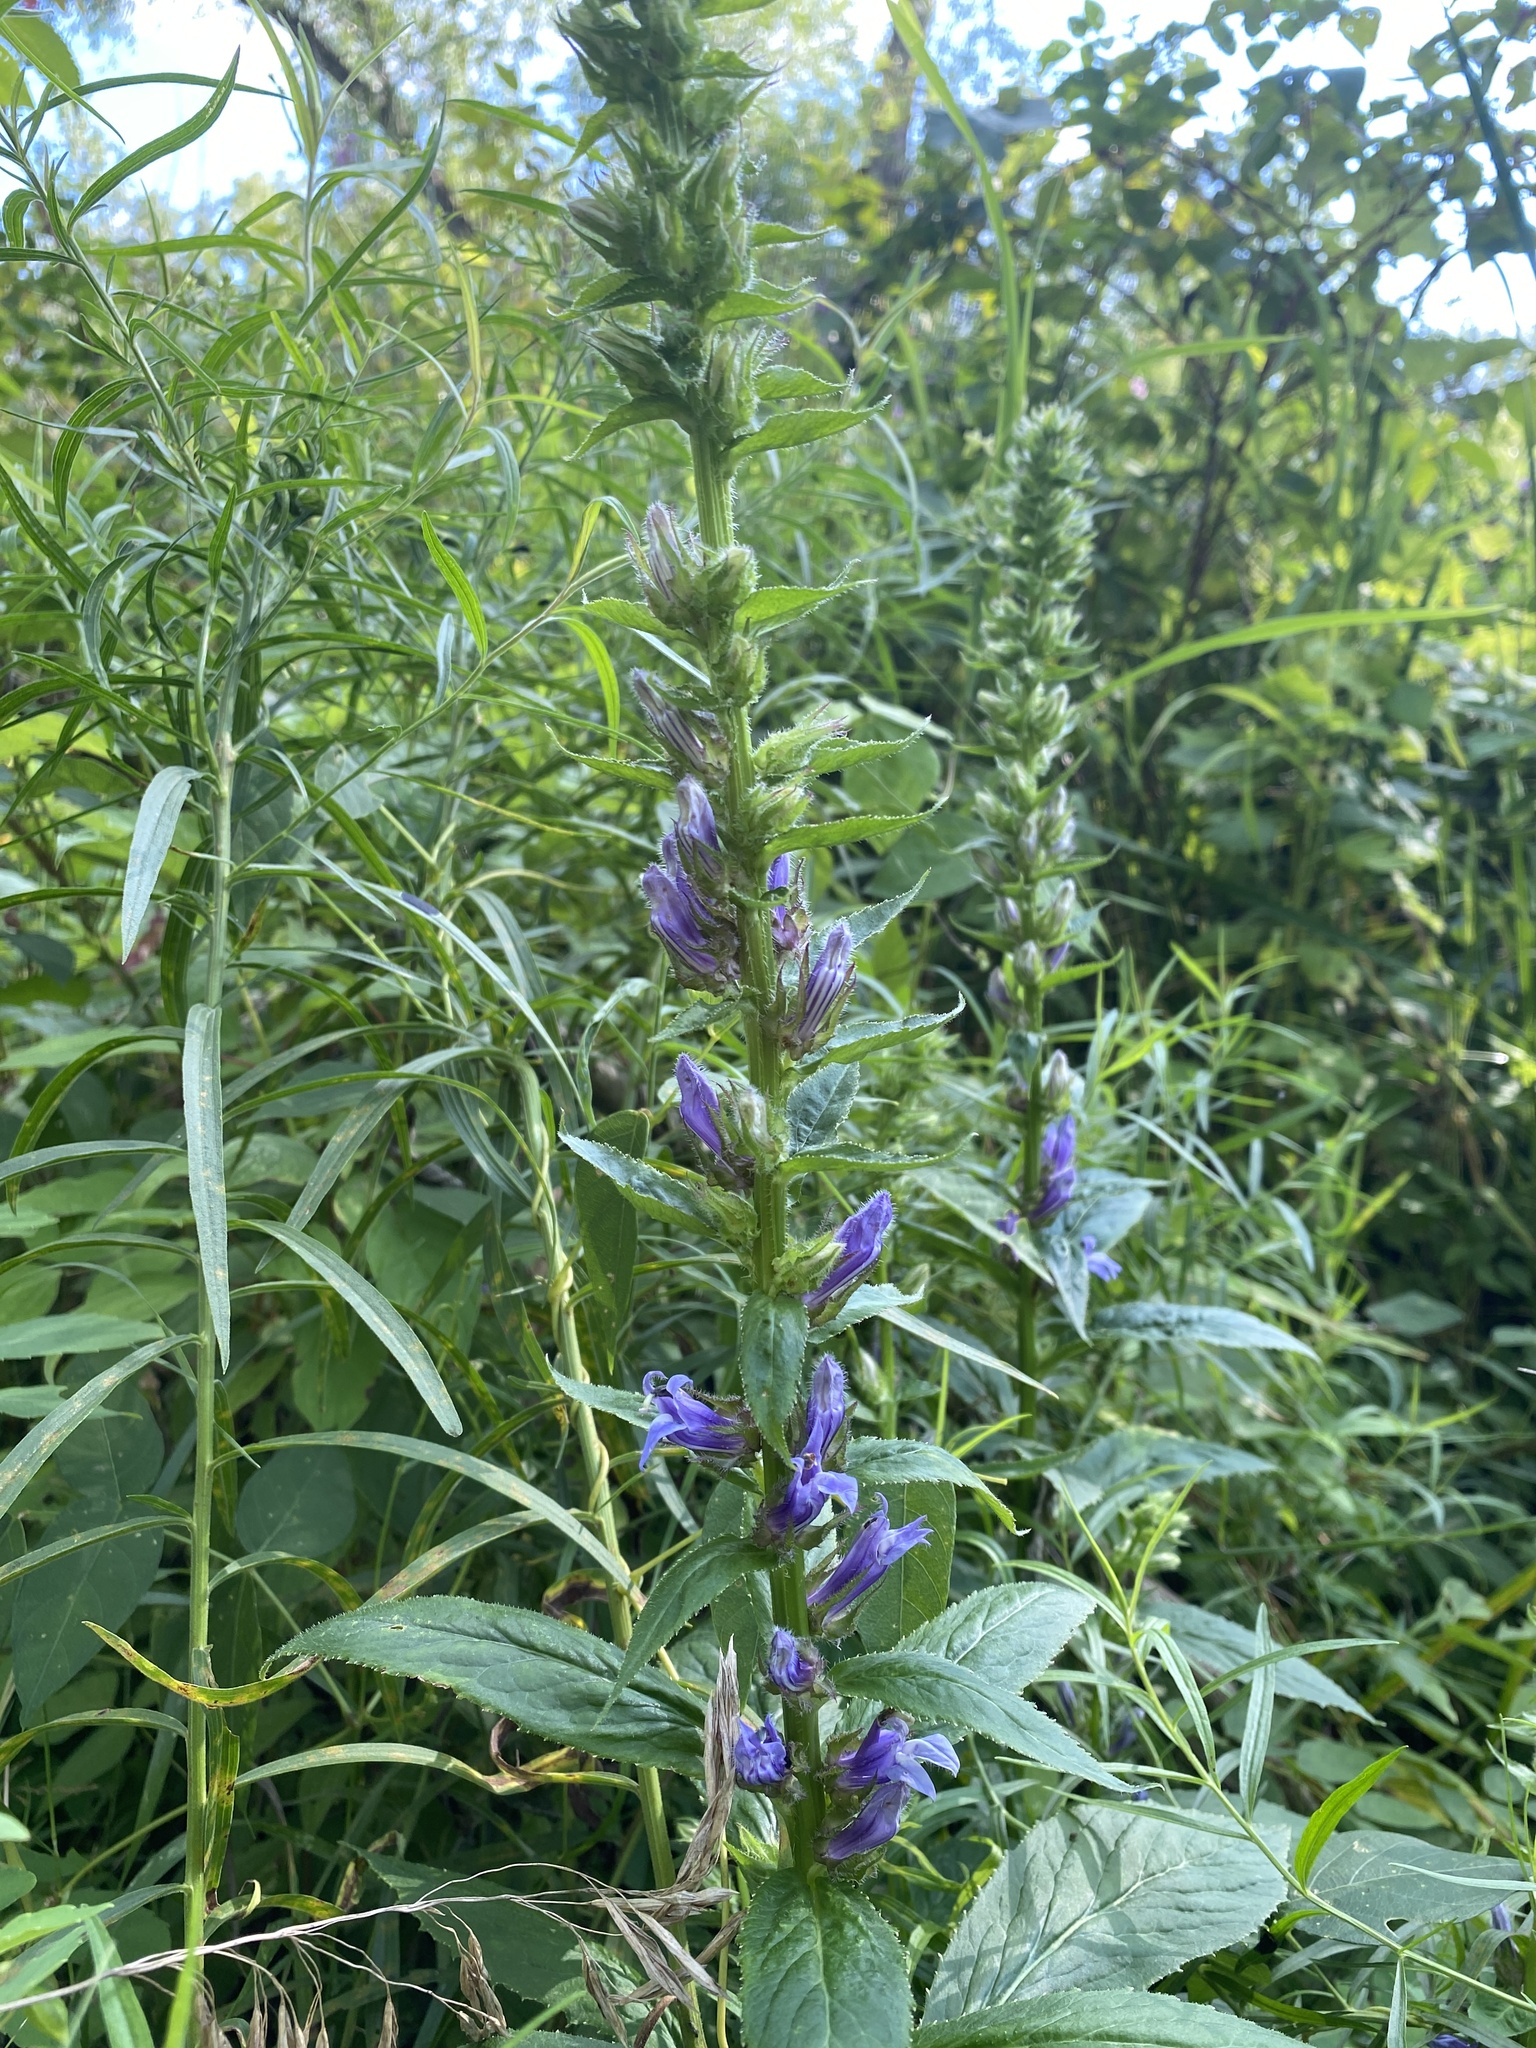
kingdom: Plantae
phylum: Tracheophyta
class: Magnoliopsida
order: Asterales
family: Campanulaceae
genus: Lobelia
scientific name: Lobelia siphilitica
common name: Great lobelia
